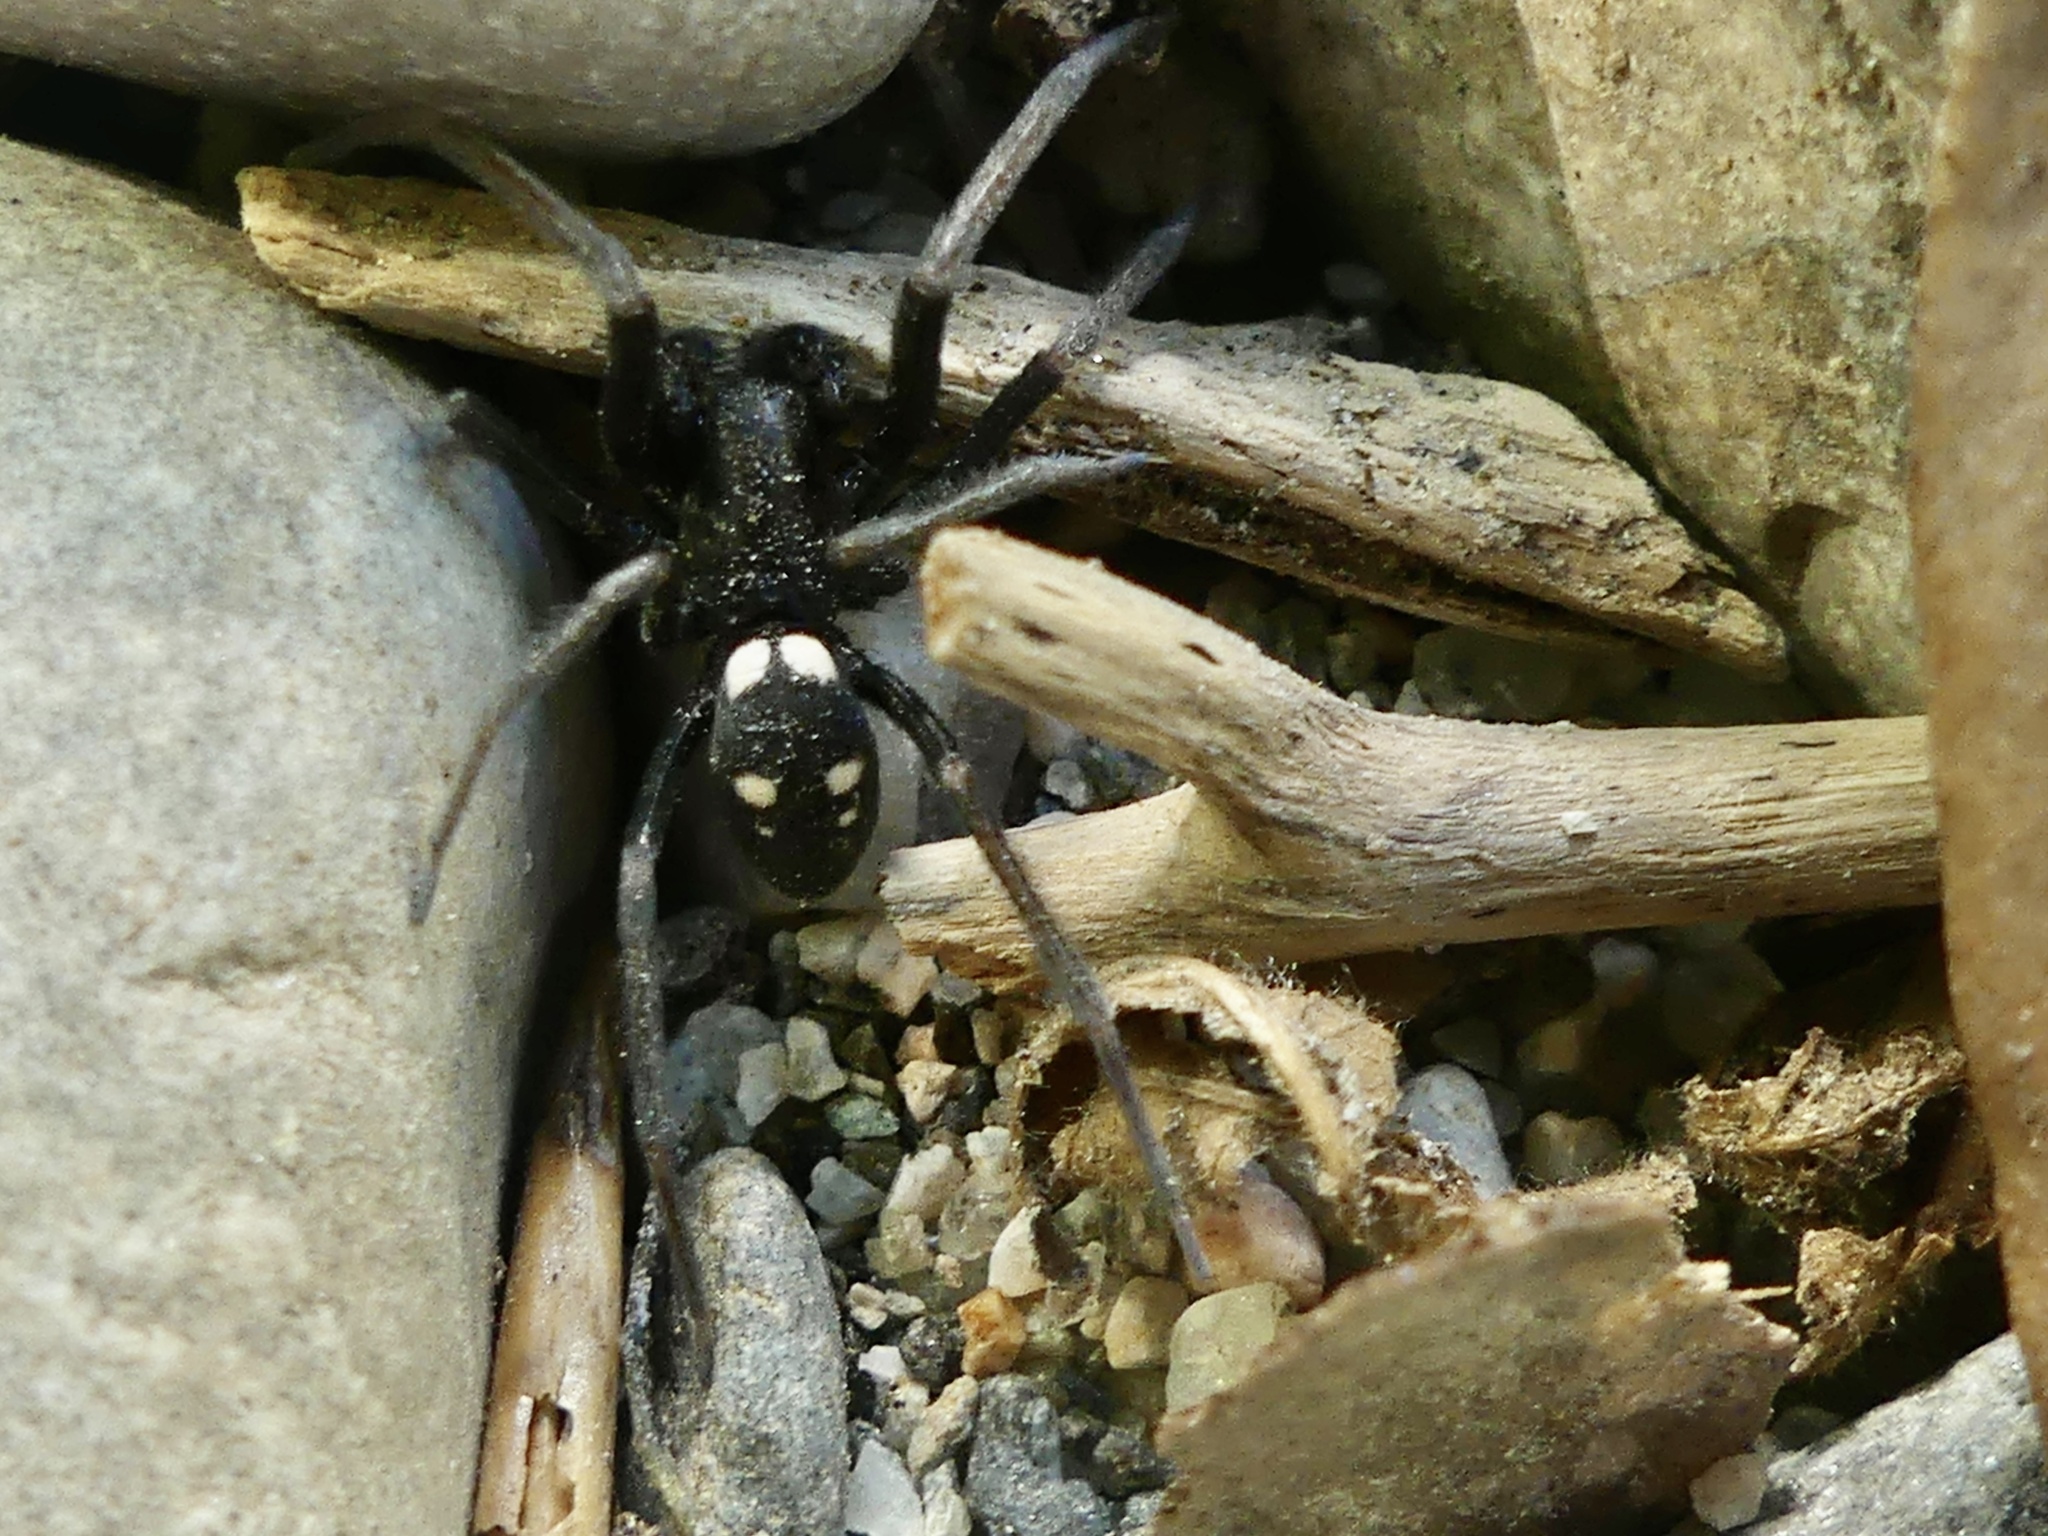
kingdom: Animalia
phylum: Arthropoda
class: Arachnida
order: Araneae
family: Titanoecidae
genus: Nurscia
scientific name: Nurscia sequerai
